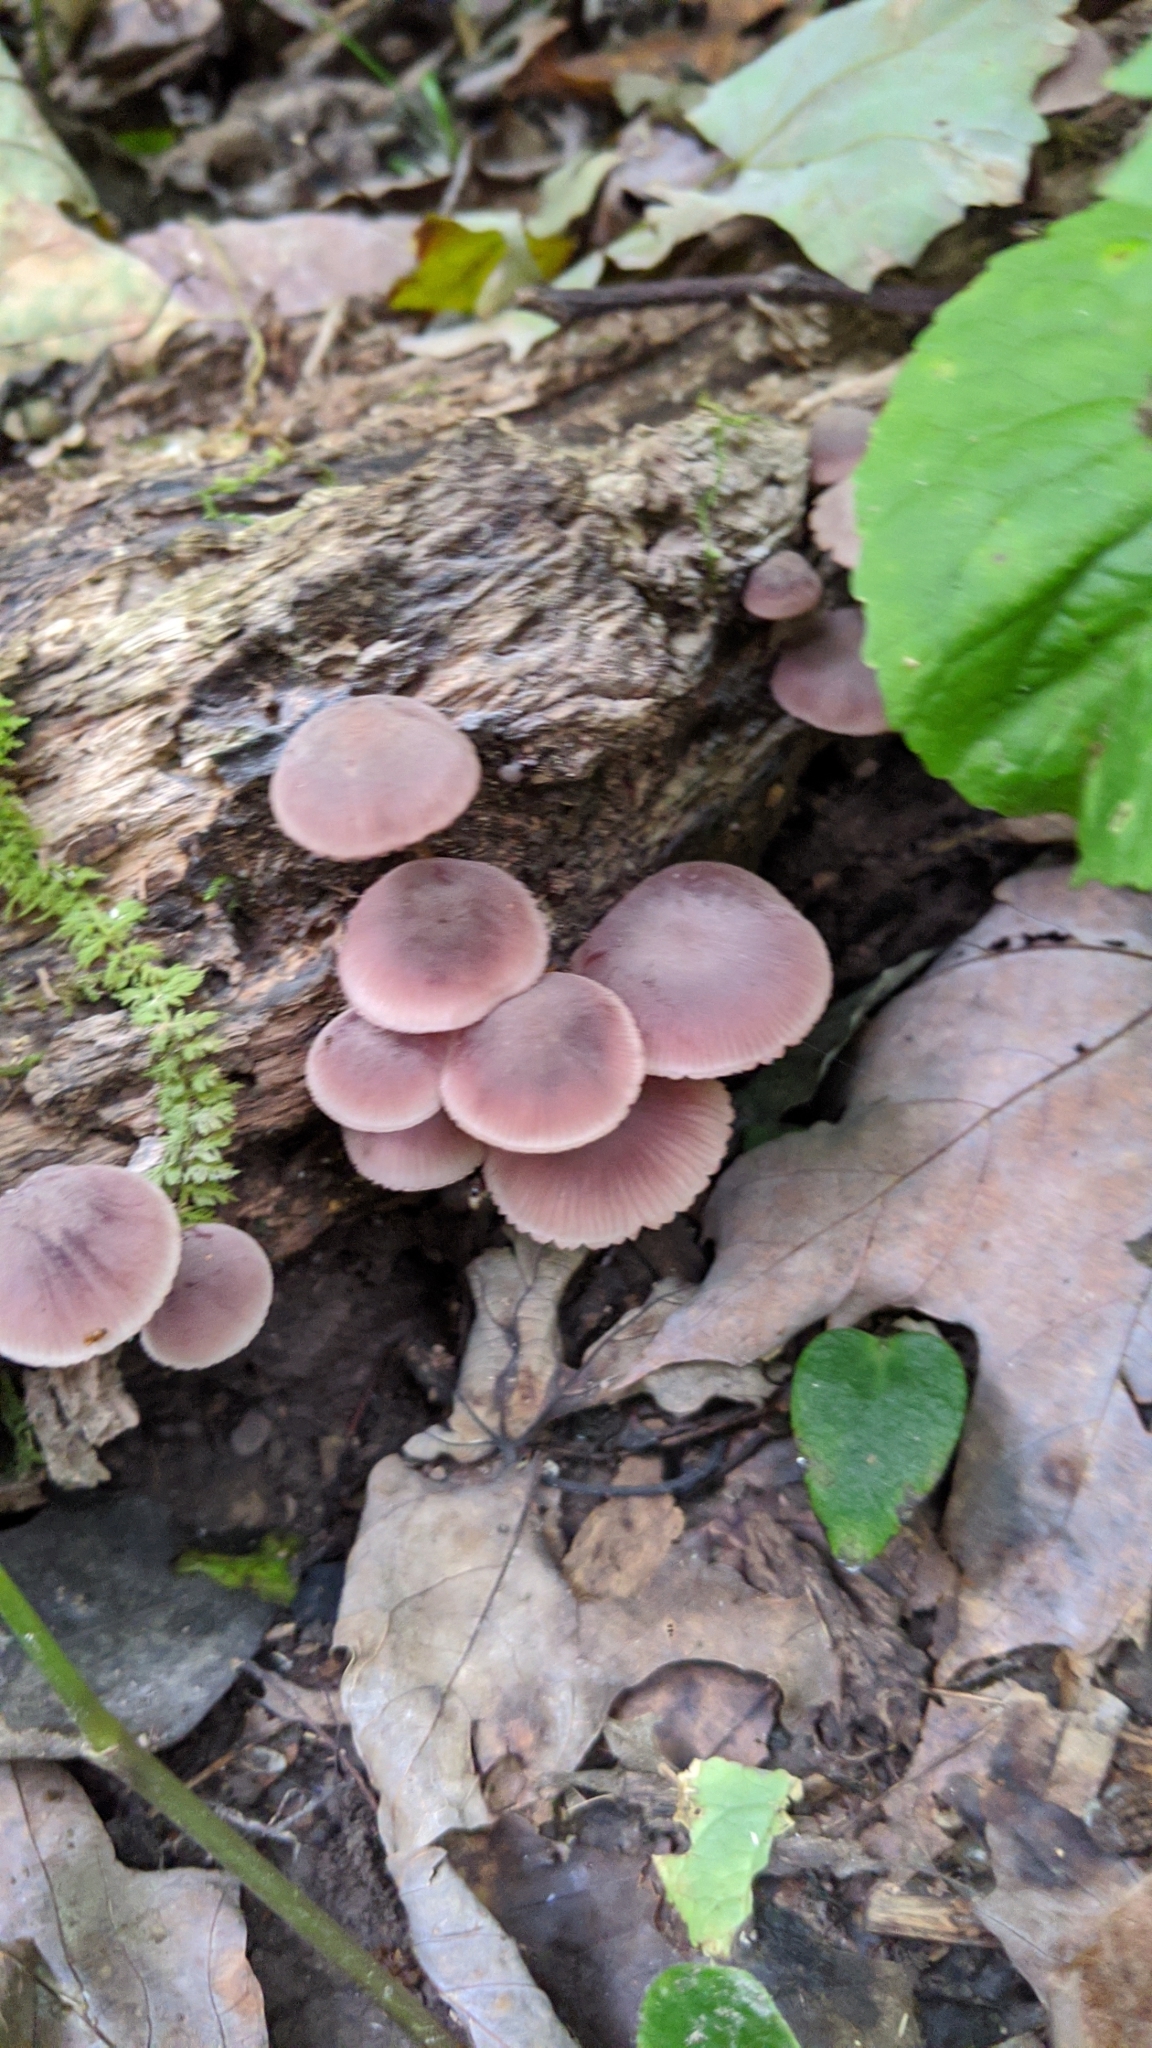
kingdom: Fungi
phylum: Basidiomycota
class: Agaricomycetes
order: Agaricales
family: Mycenaceae
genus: Mycena
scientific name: Mycena haematopus
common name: Burgundydrop bonnet
